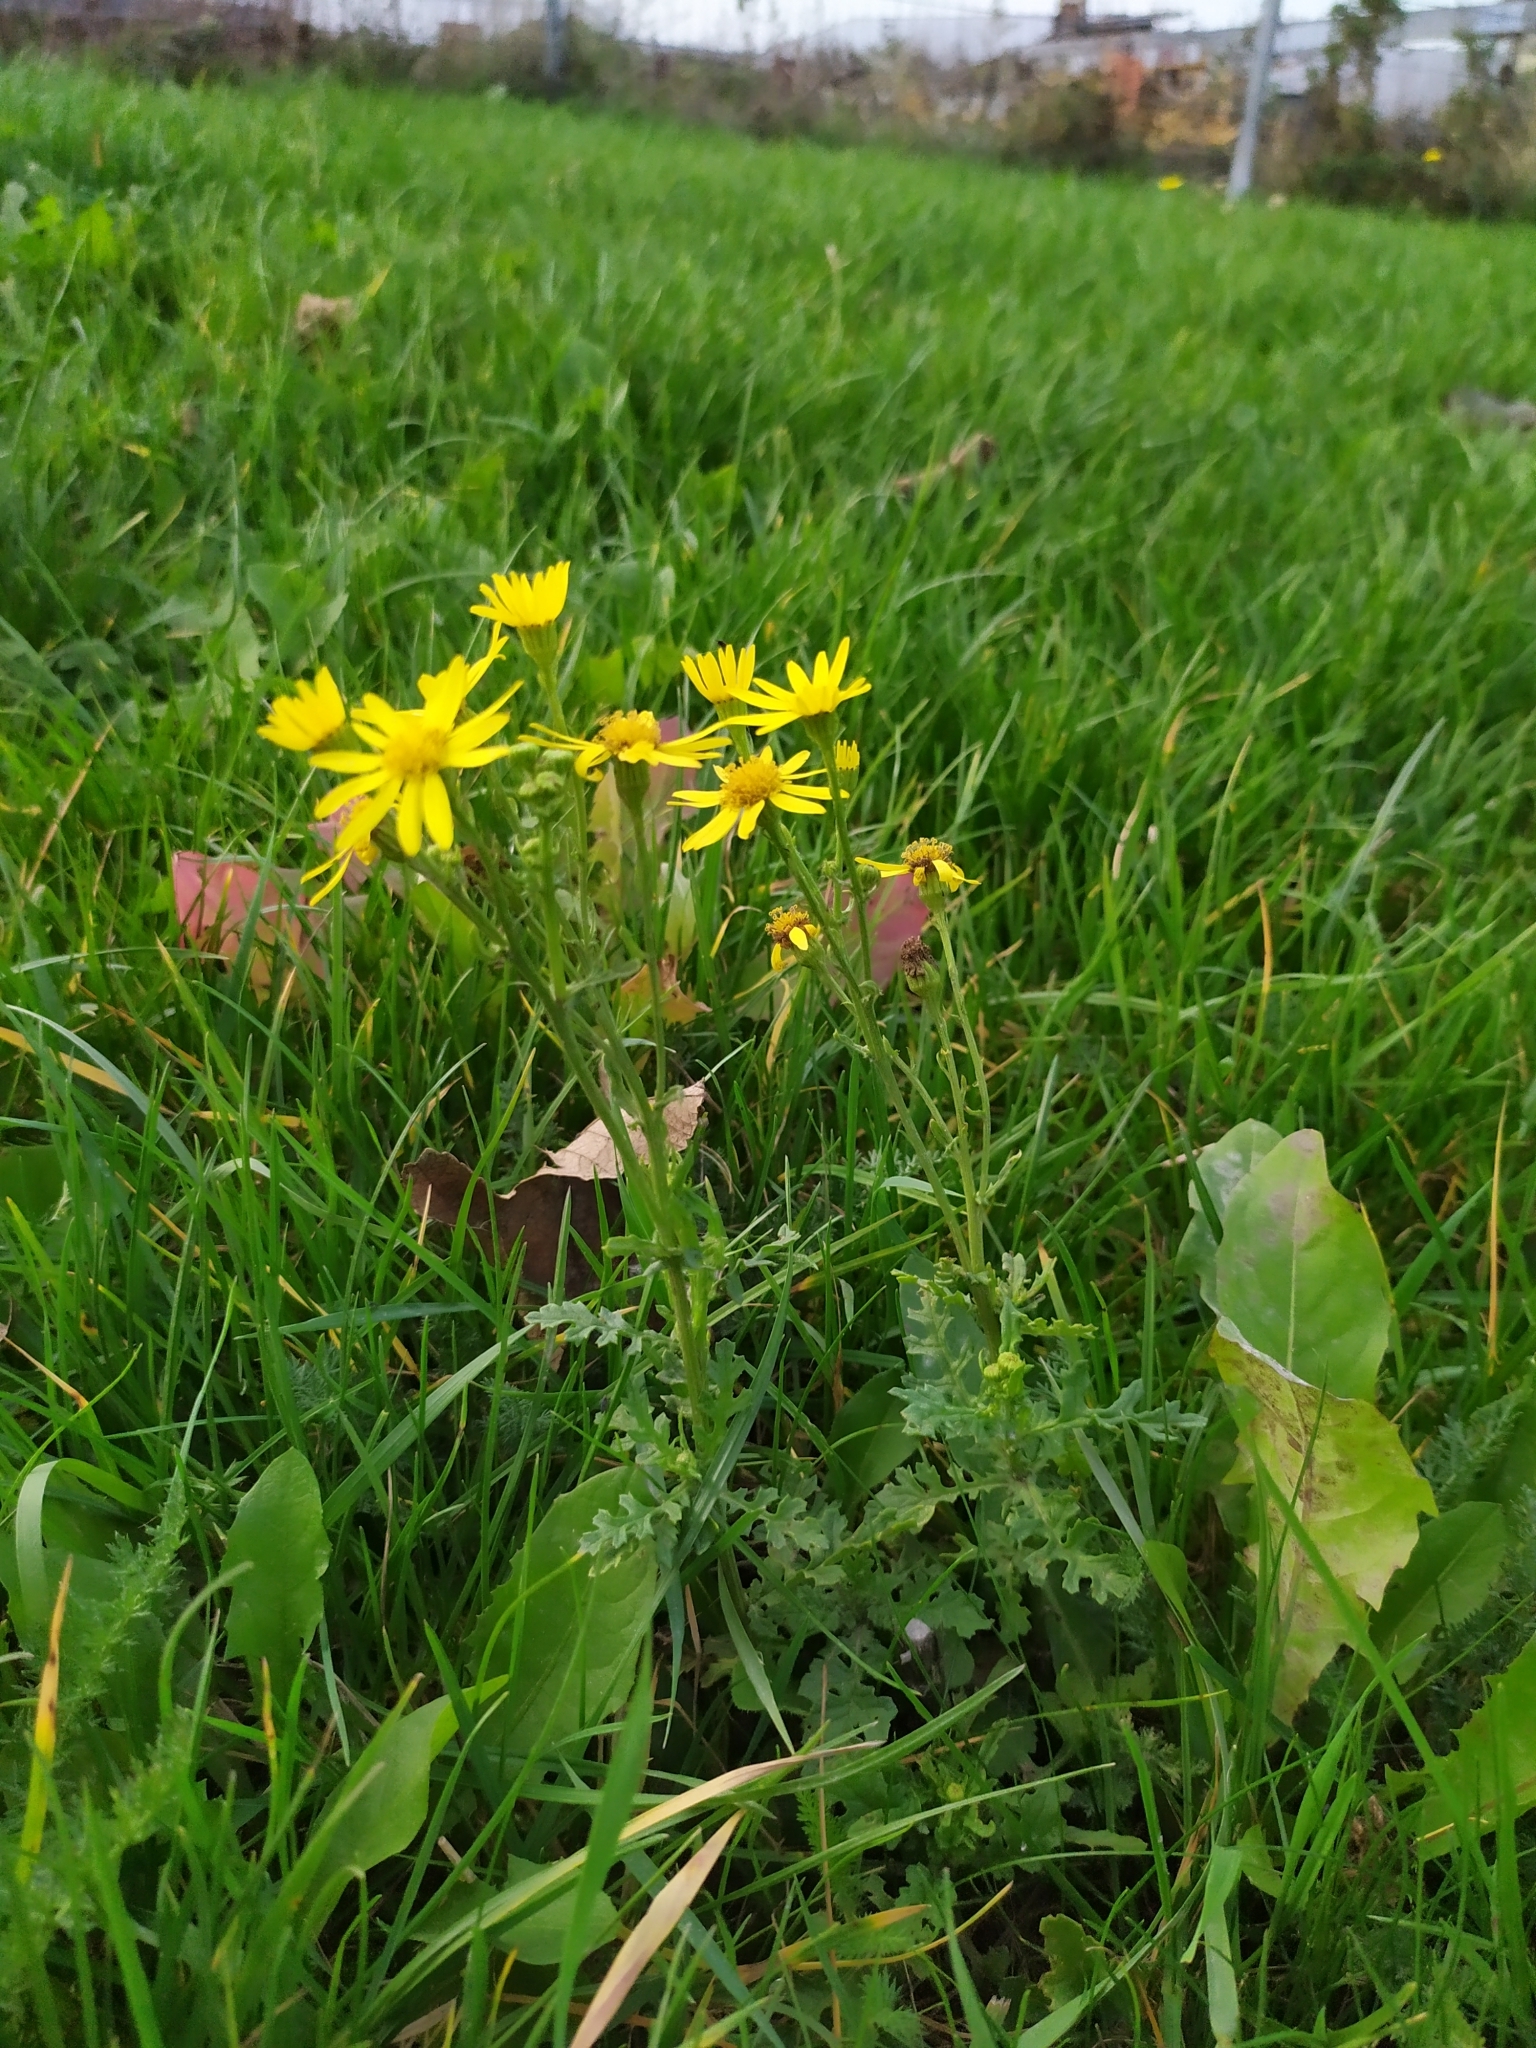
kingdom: Plantae
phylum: Tracheophyta
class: Magnoliopsida
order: Asterales
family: Asteraceae
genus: Jacobaea
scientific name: Jacobaea vulgaris
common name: Stinking willie
